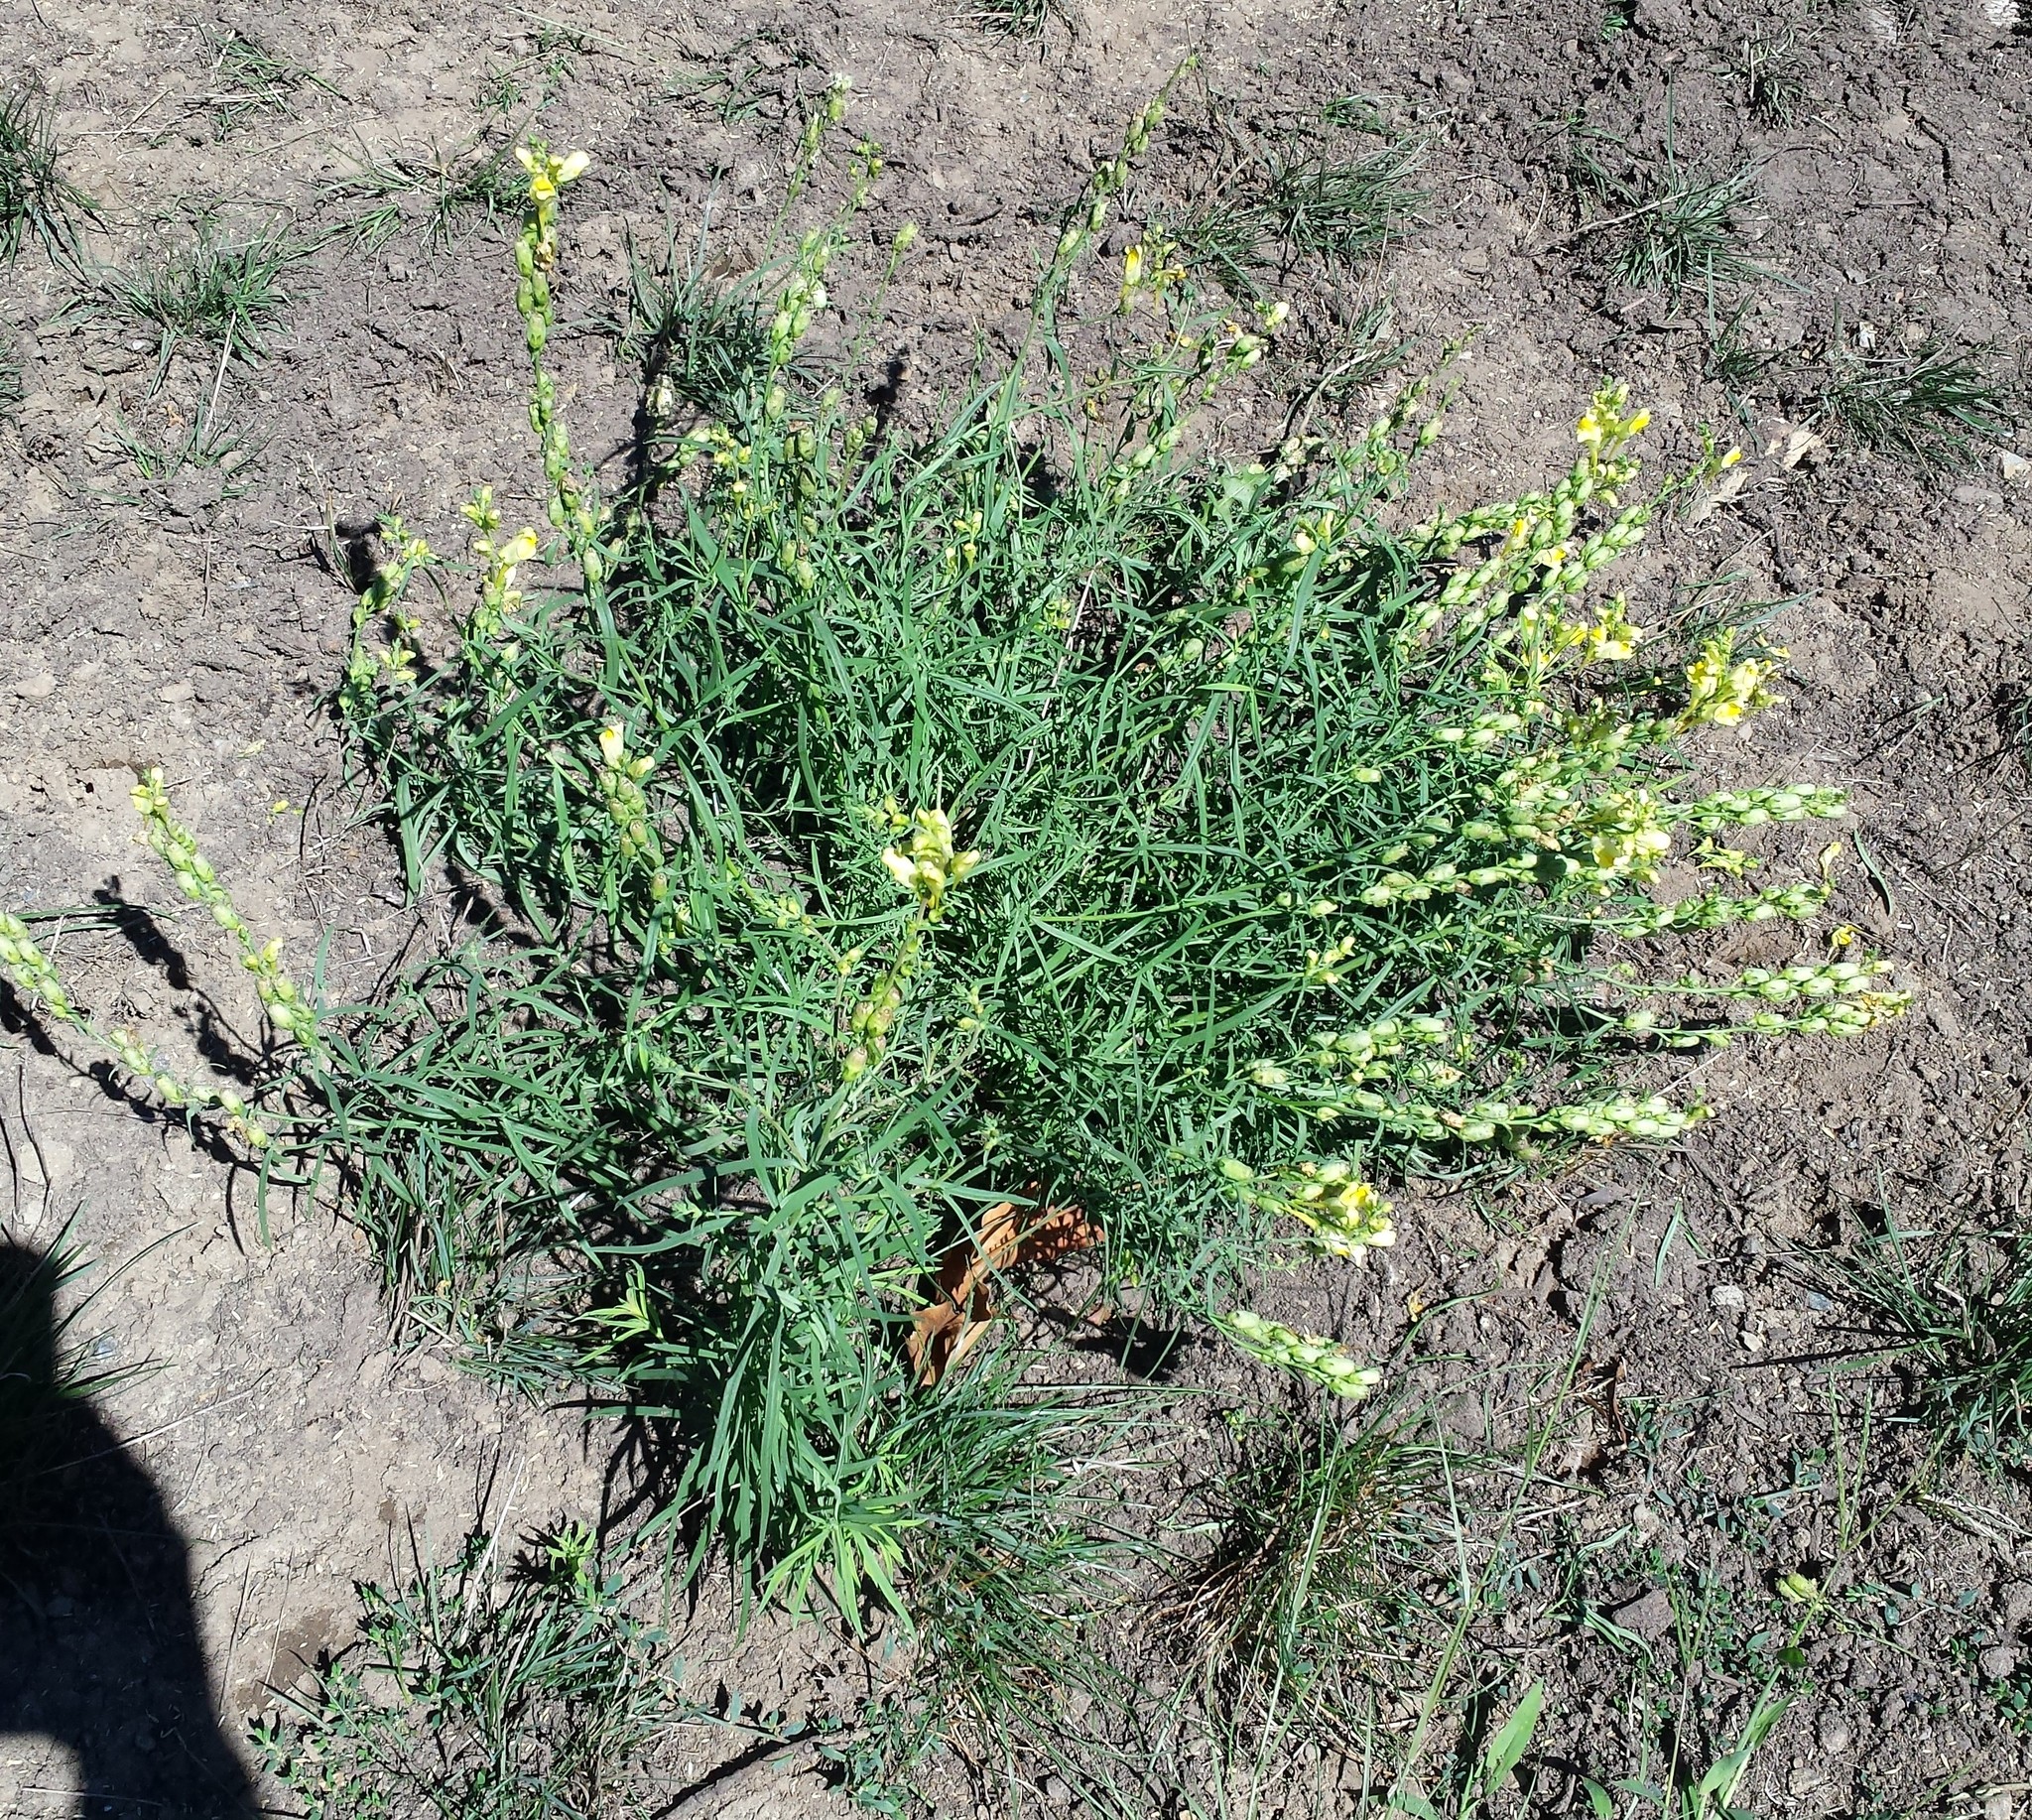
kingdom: Plantae
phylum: Tracheophyta
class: Magnoliopsida
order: Lamiales
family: Plantaginaceae
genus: Linaria
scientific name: Linaria vulgaris
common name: Butter and eggs
